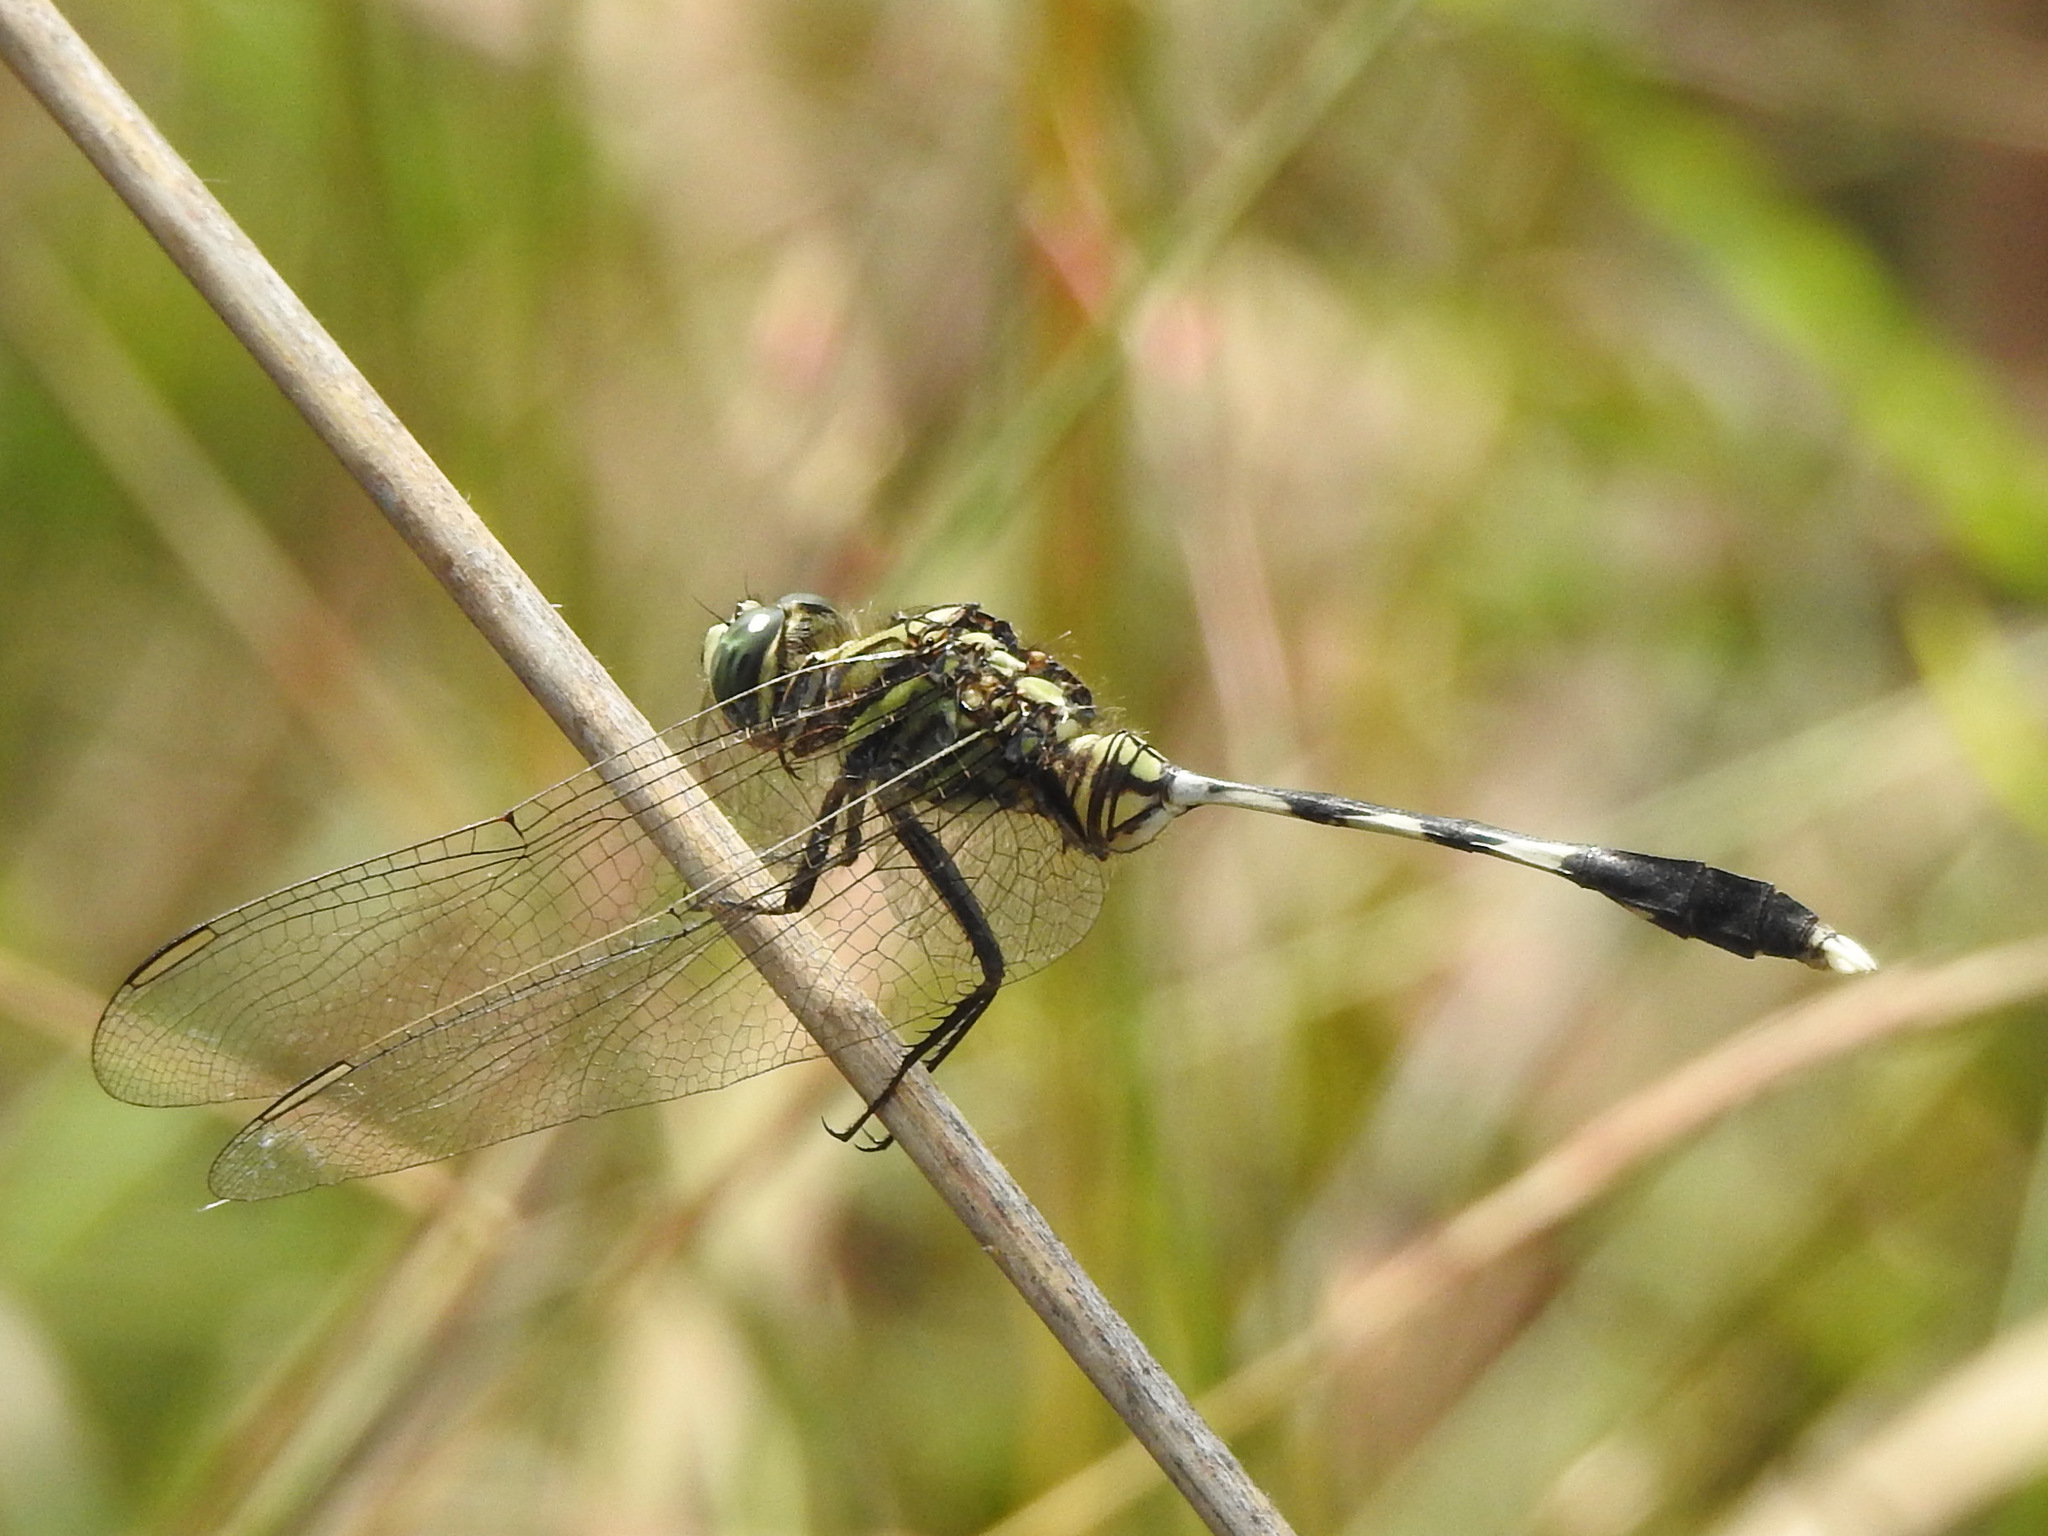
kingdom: Animalia
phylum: Arthropoda
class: Insecta
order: Odonata
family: Libellulidae
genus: Orthetrum
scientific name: Orthetrum sabina
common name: Slender skimmer
